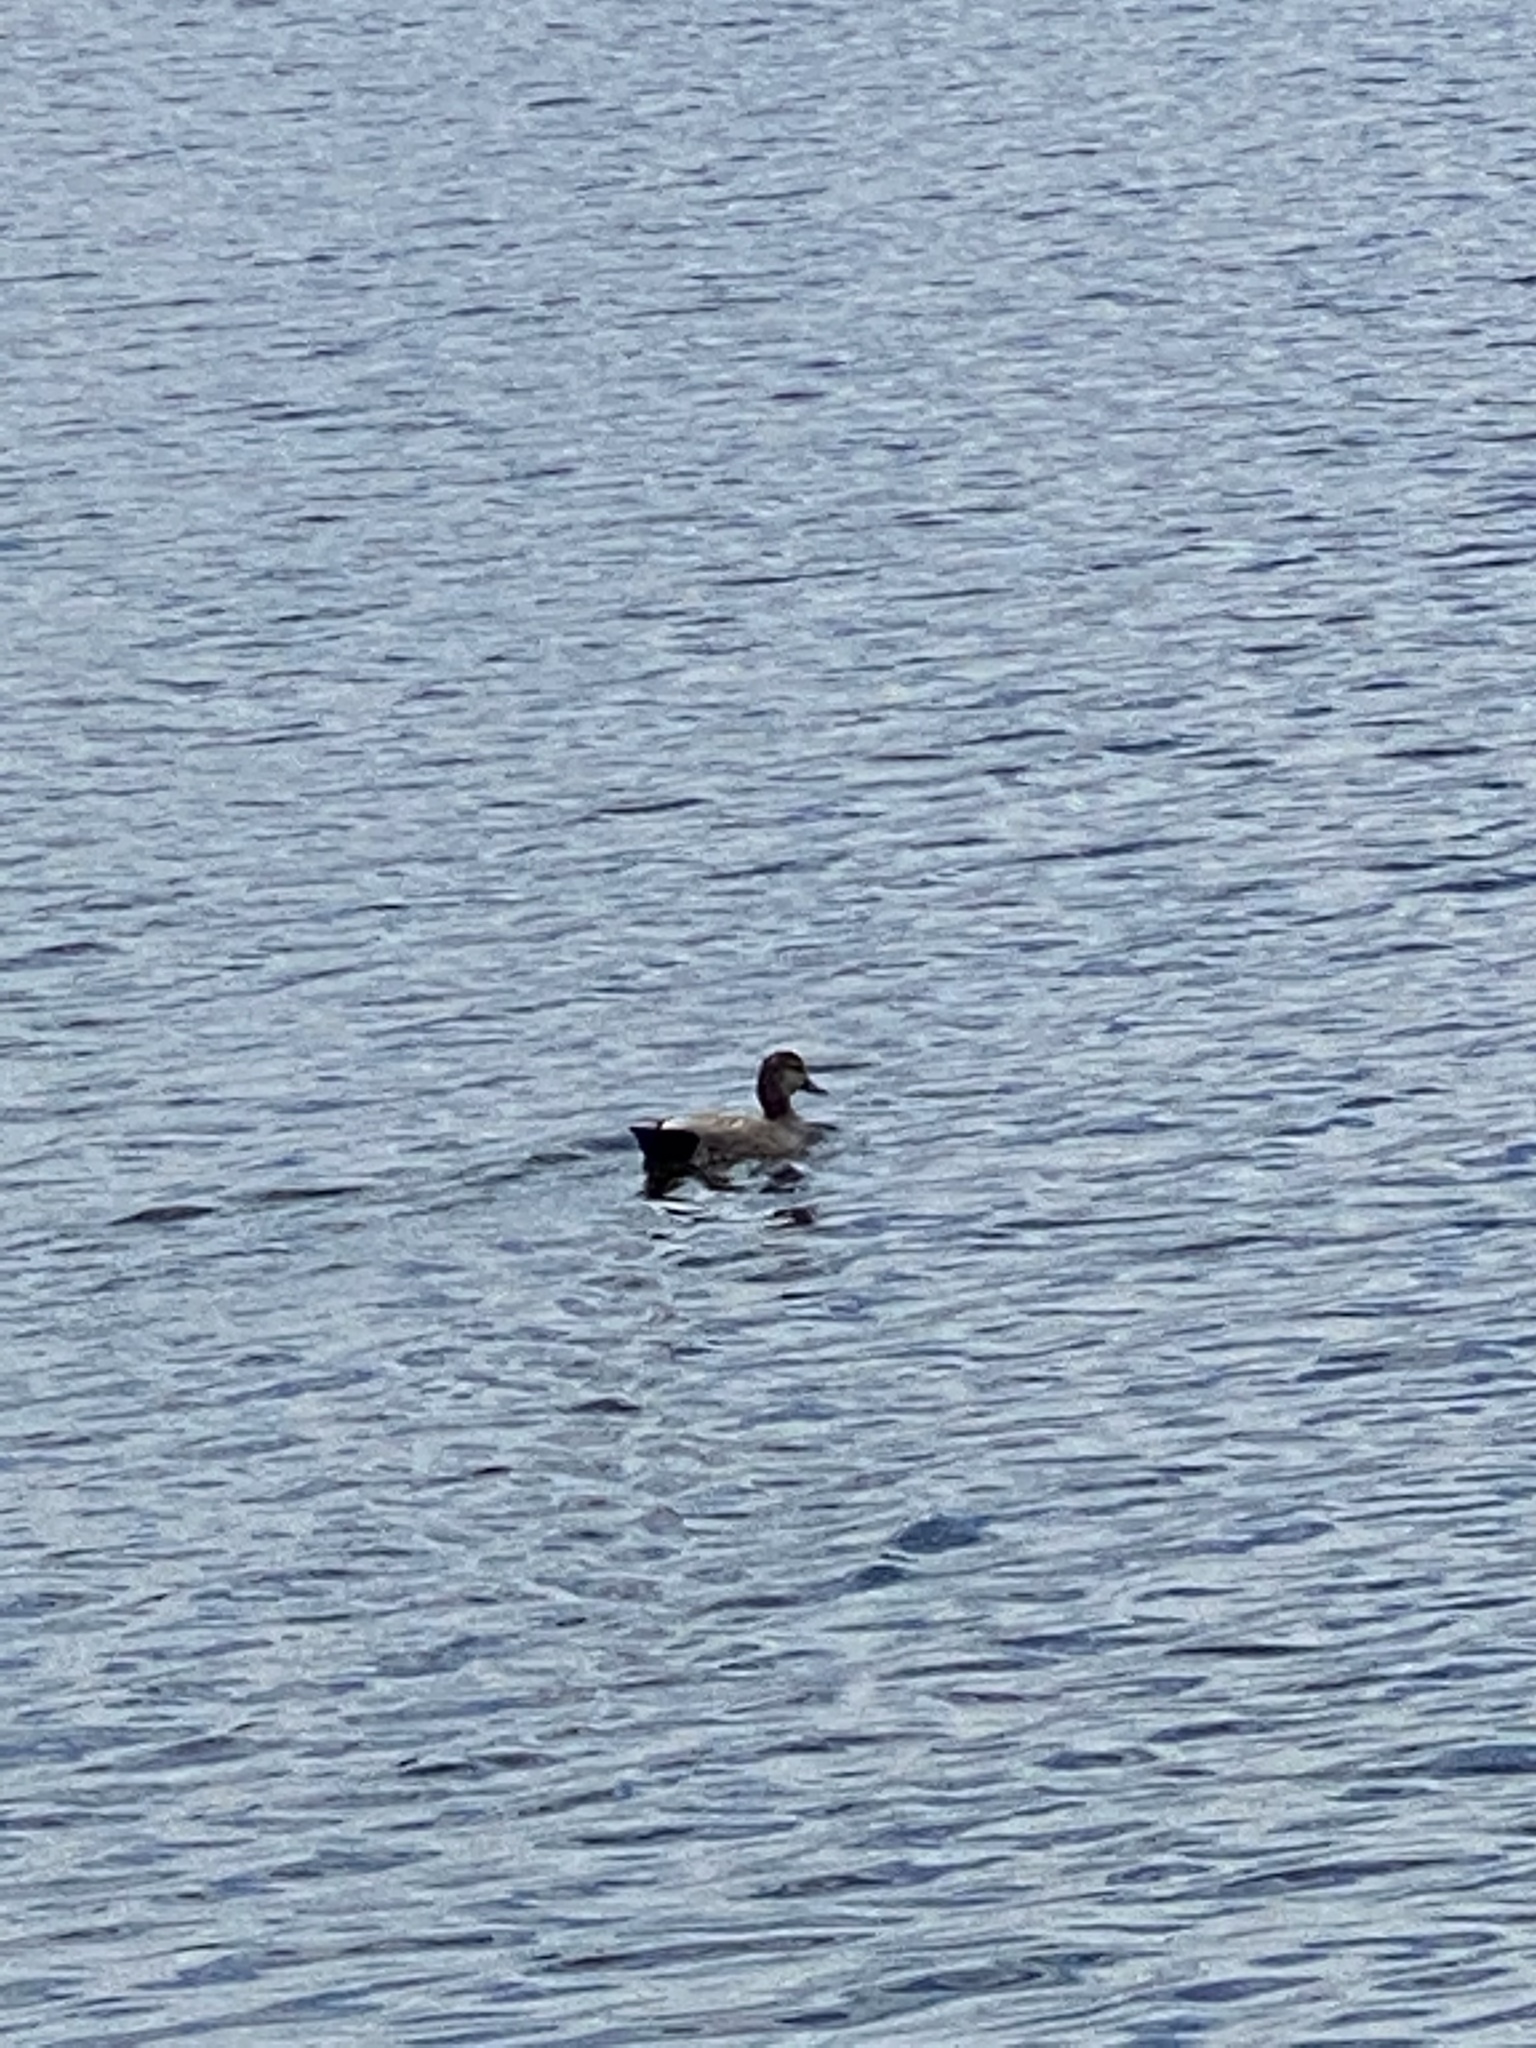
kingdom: Animalia
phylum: Chordata
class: Aves
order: Anseriformes
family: Anatidae
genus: Mareca
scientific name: Mareca strepera
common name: Gadwall
